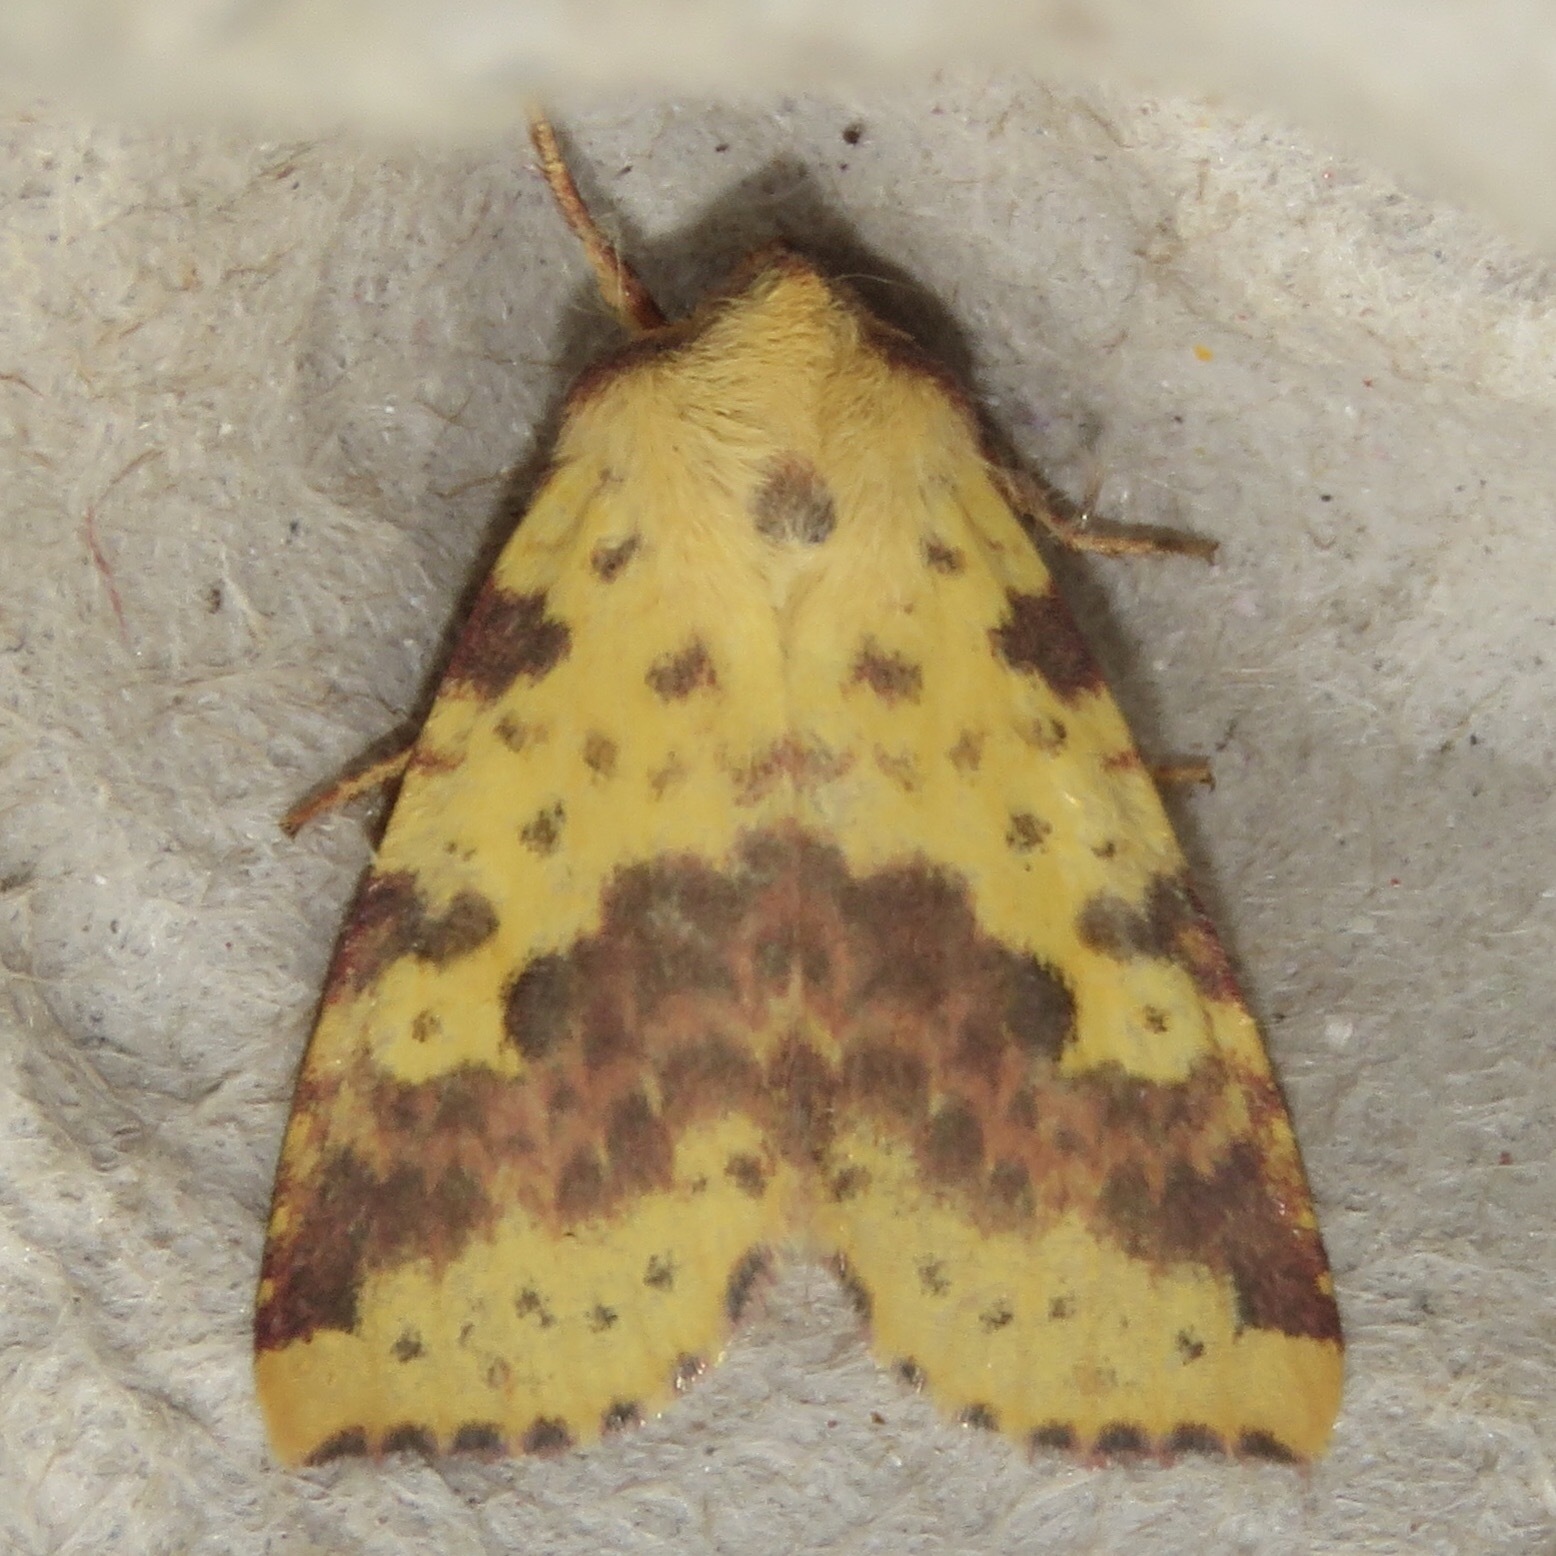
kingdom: Animalia
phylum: Arthropoda
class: Insecta
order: Lepidoptera
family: Noctuidae
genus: Xanthia
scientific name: Xanthia tatago
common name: Pink-banded sallow
